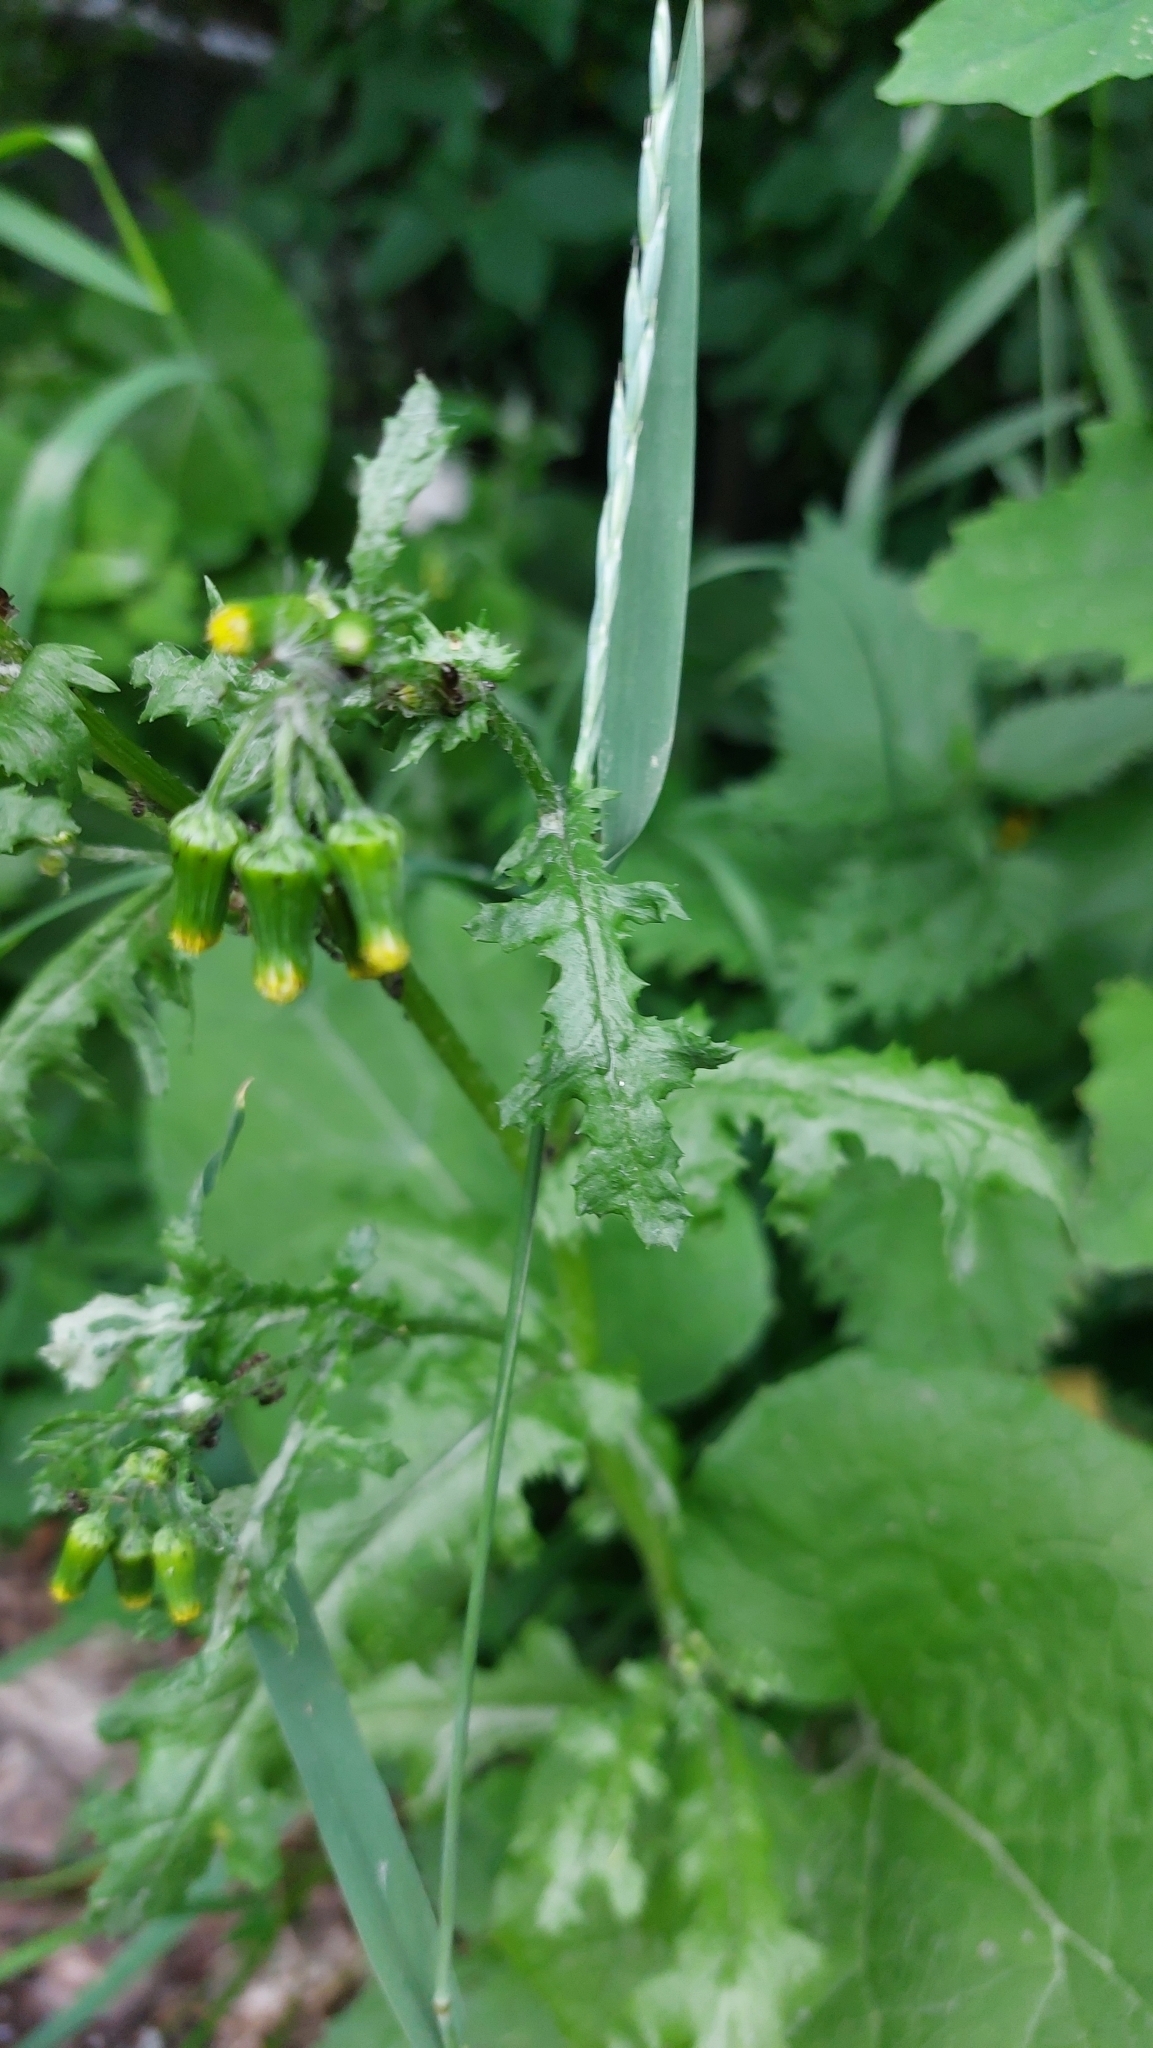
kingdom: Plantae
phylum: Tracheophyta
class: Magnoliopsida
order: Asterales
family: Asteraceae
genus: Senecio
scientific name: Senecio vulgaris
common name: Old-man-in-the-spring
